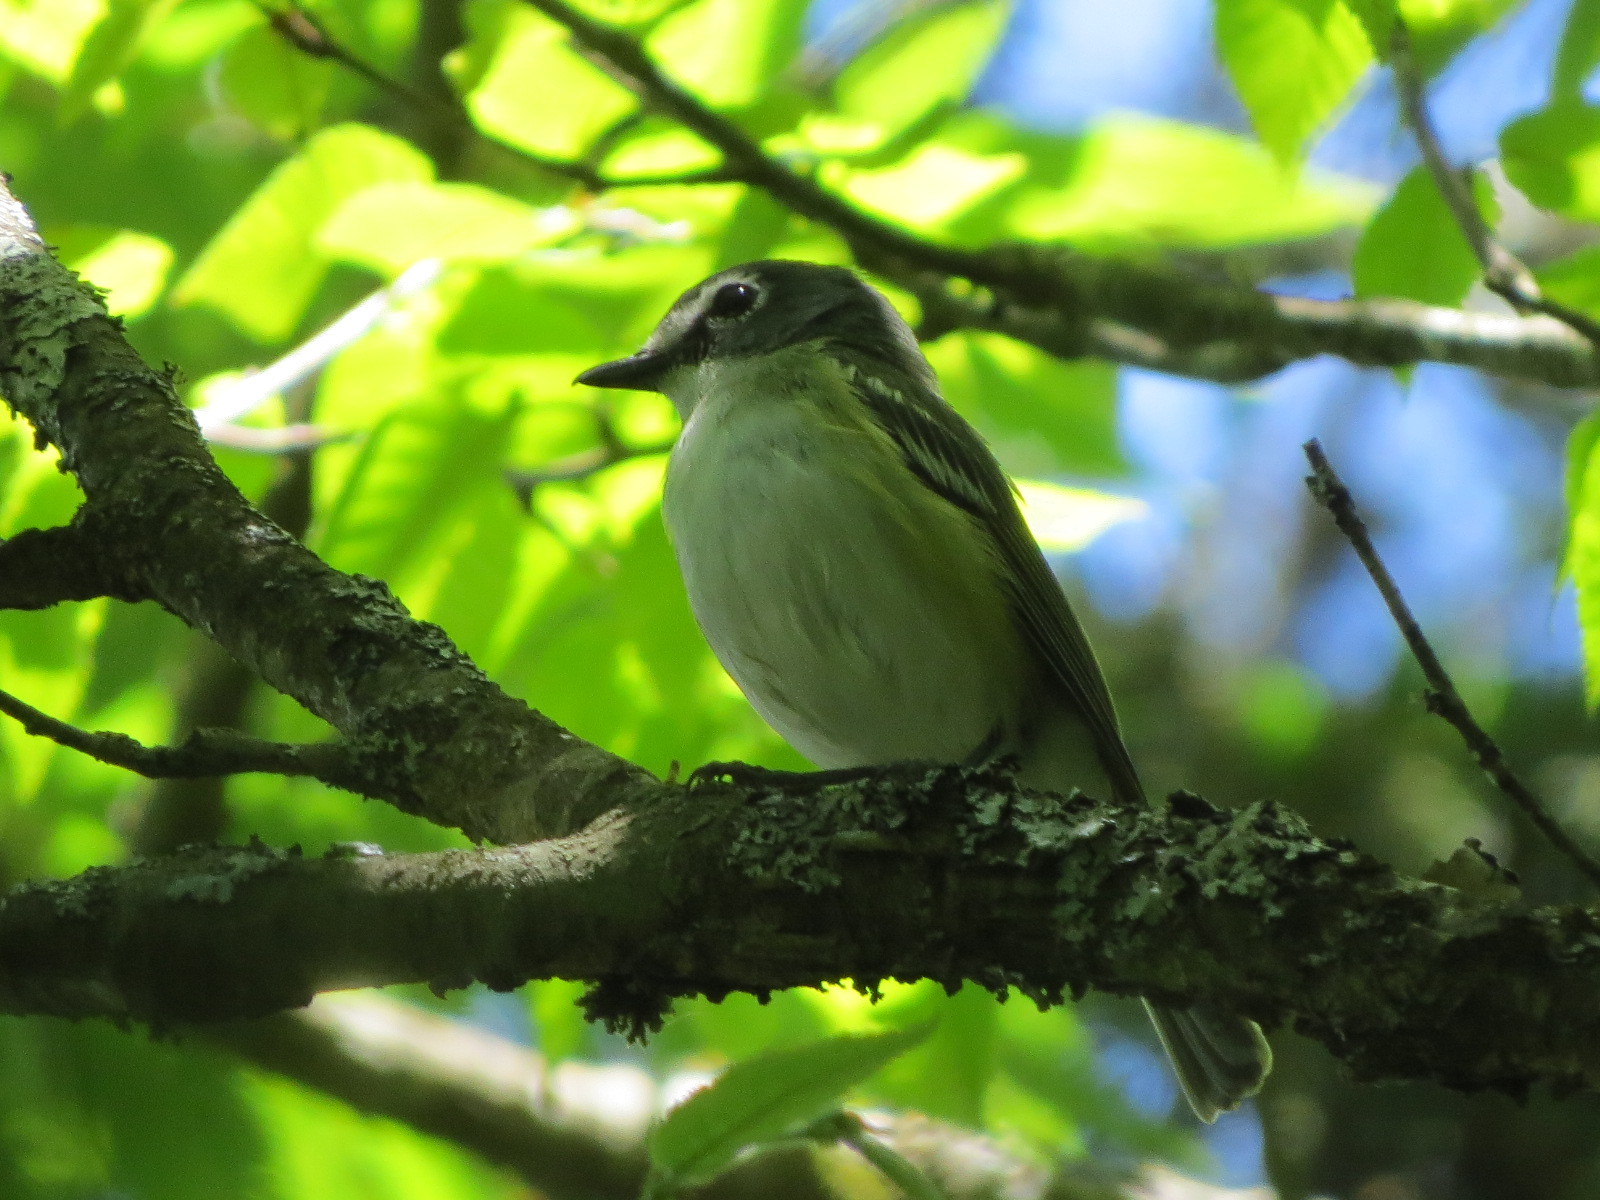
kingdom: Animalia
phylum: Chordata
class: Aves
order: Passeriformes
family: Vireonidae
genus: Vireo
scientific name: Vireo solitarius
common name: Blue-headed vireo
